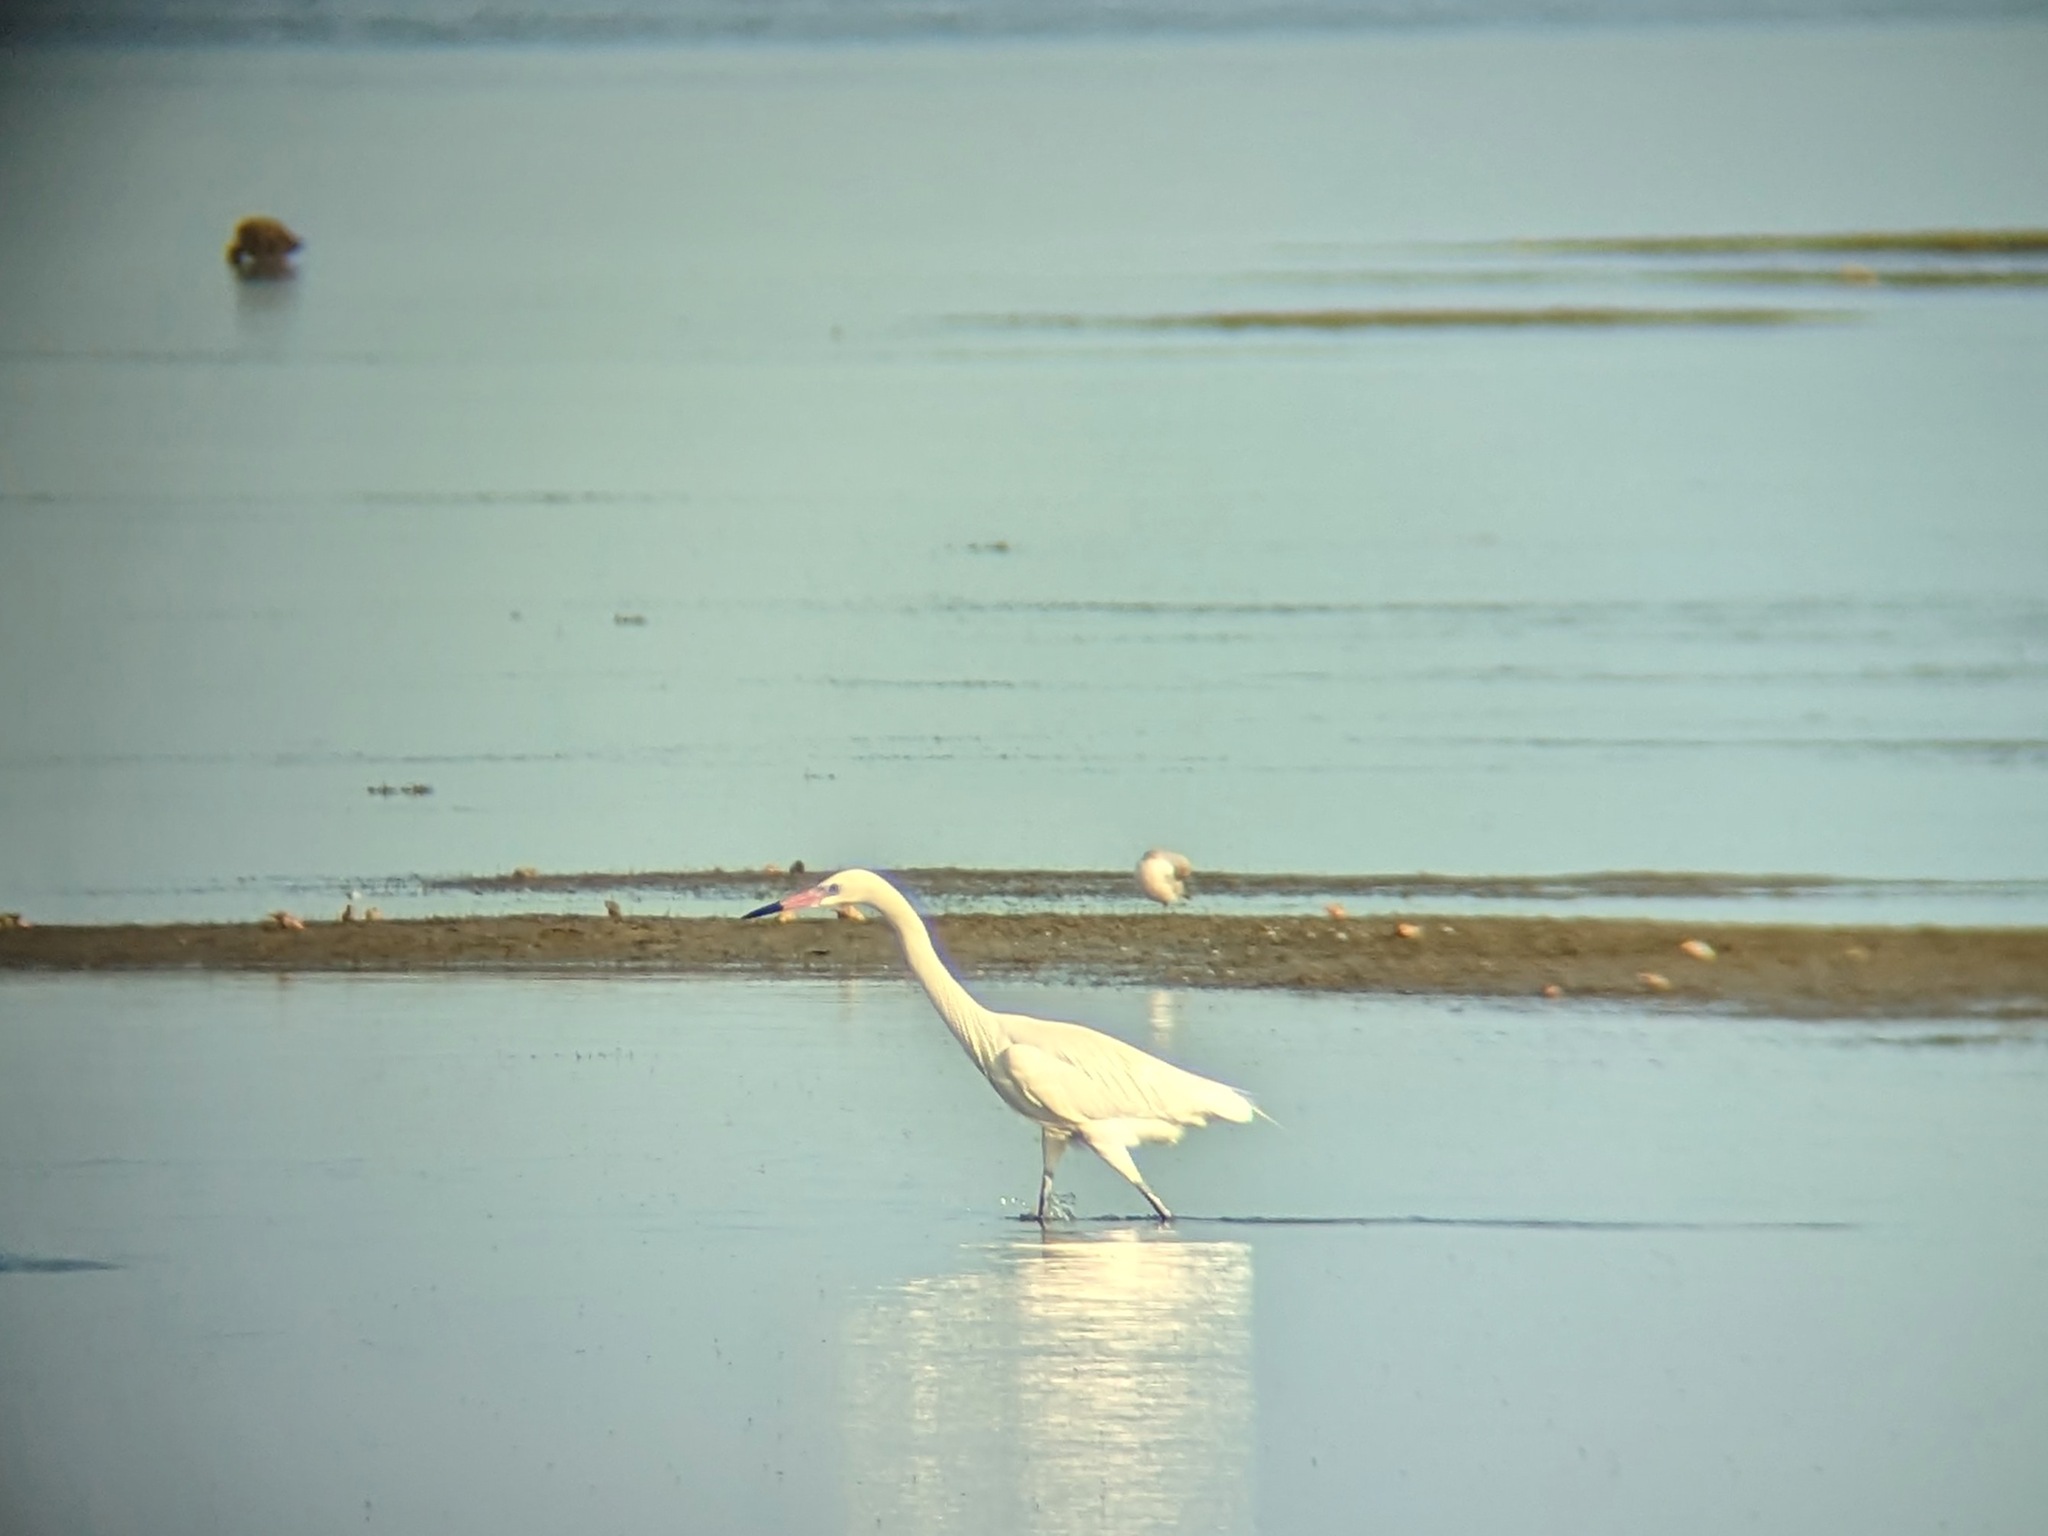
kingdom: Animalia
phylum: Chordata
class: Aves
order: Pelecaniformes
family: Ardeidae
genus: Egretta
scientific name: Egretta rufescens
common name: Reddish egret
